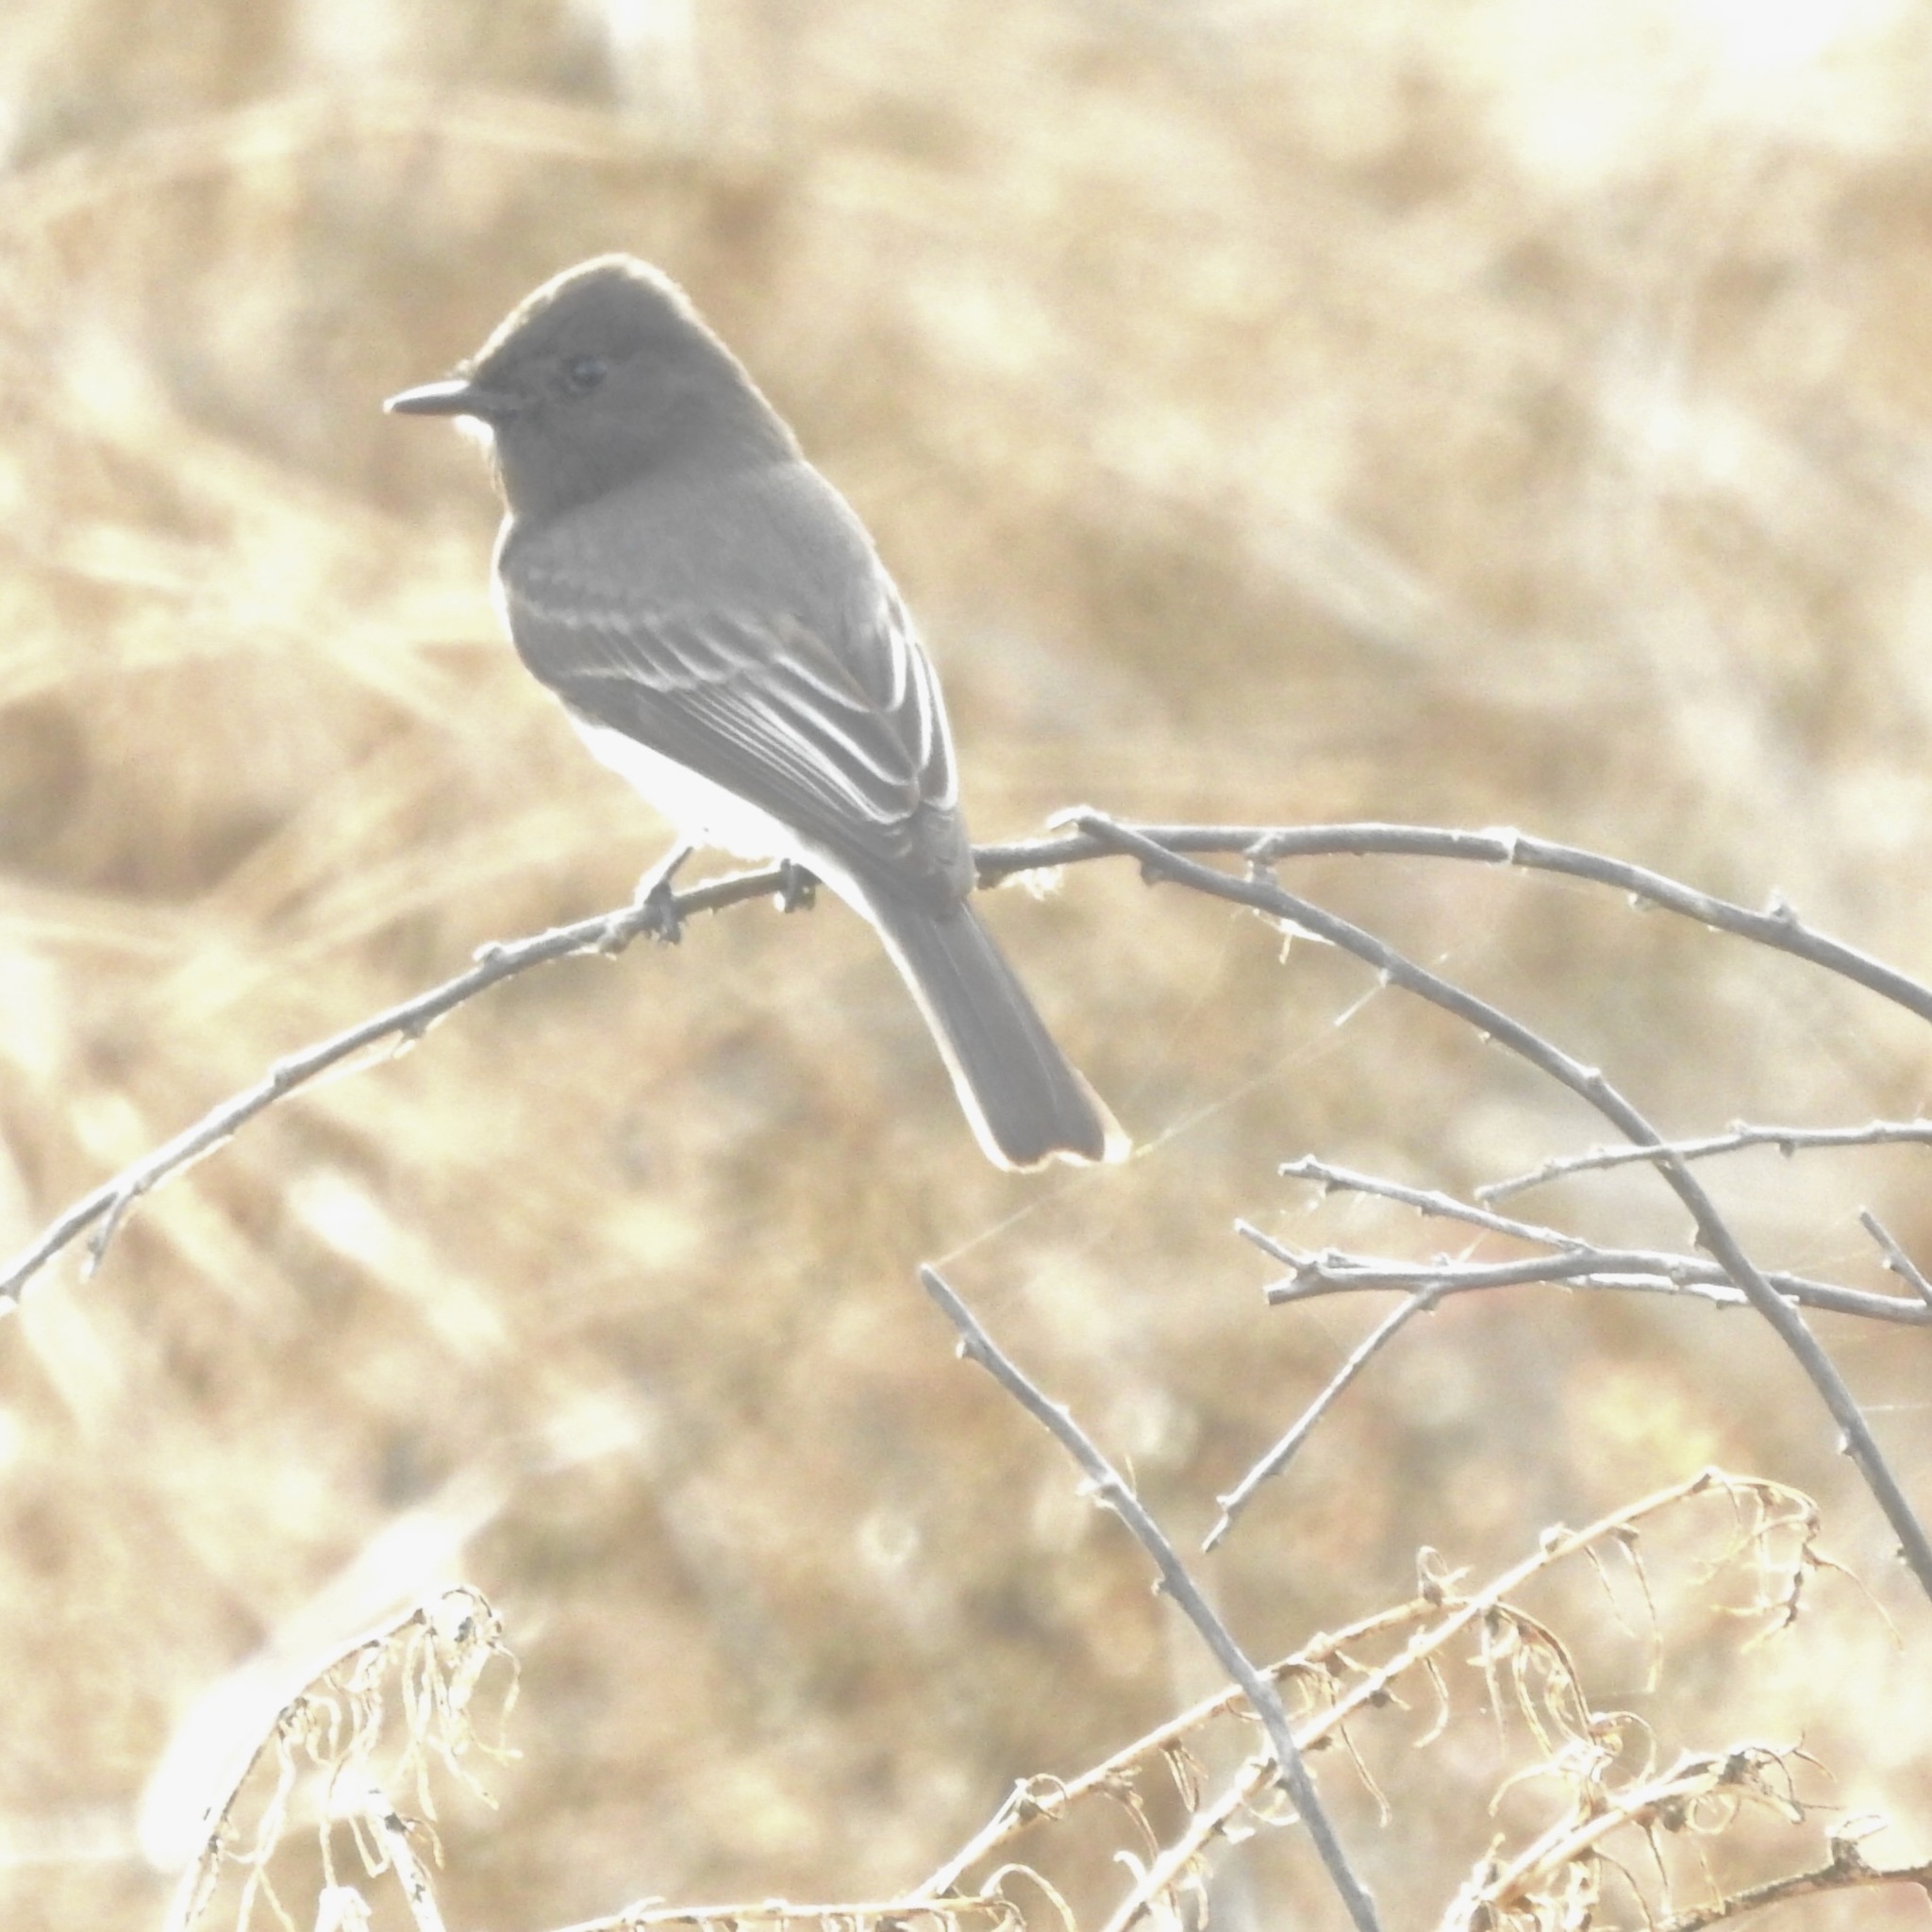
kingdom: Animalia
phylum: Chordata
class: Aves
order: Passeriformes
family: Tyrannidae
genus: Sayornis
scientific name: Sayornis nigricans
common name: Black phoebe
